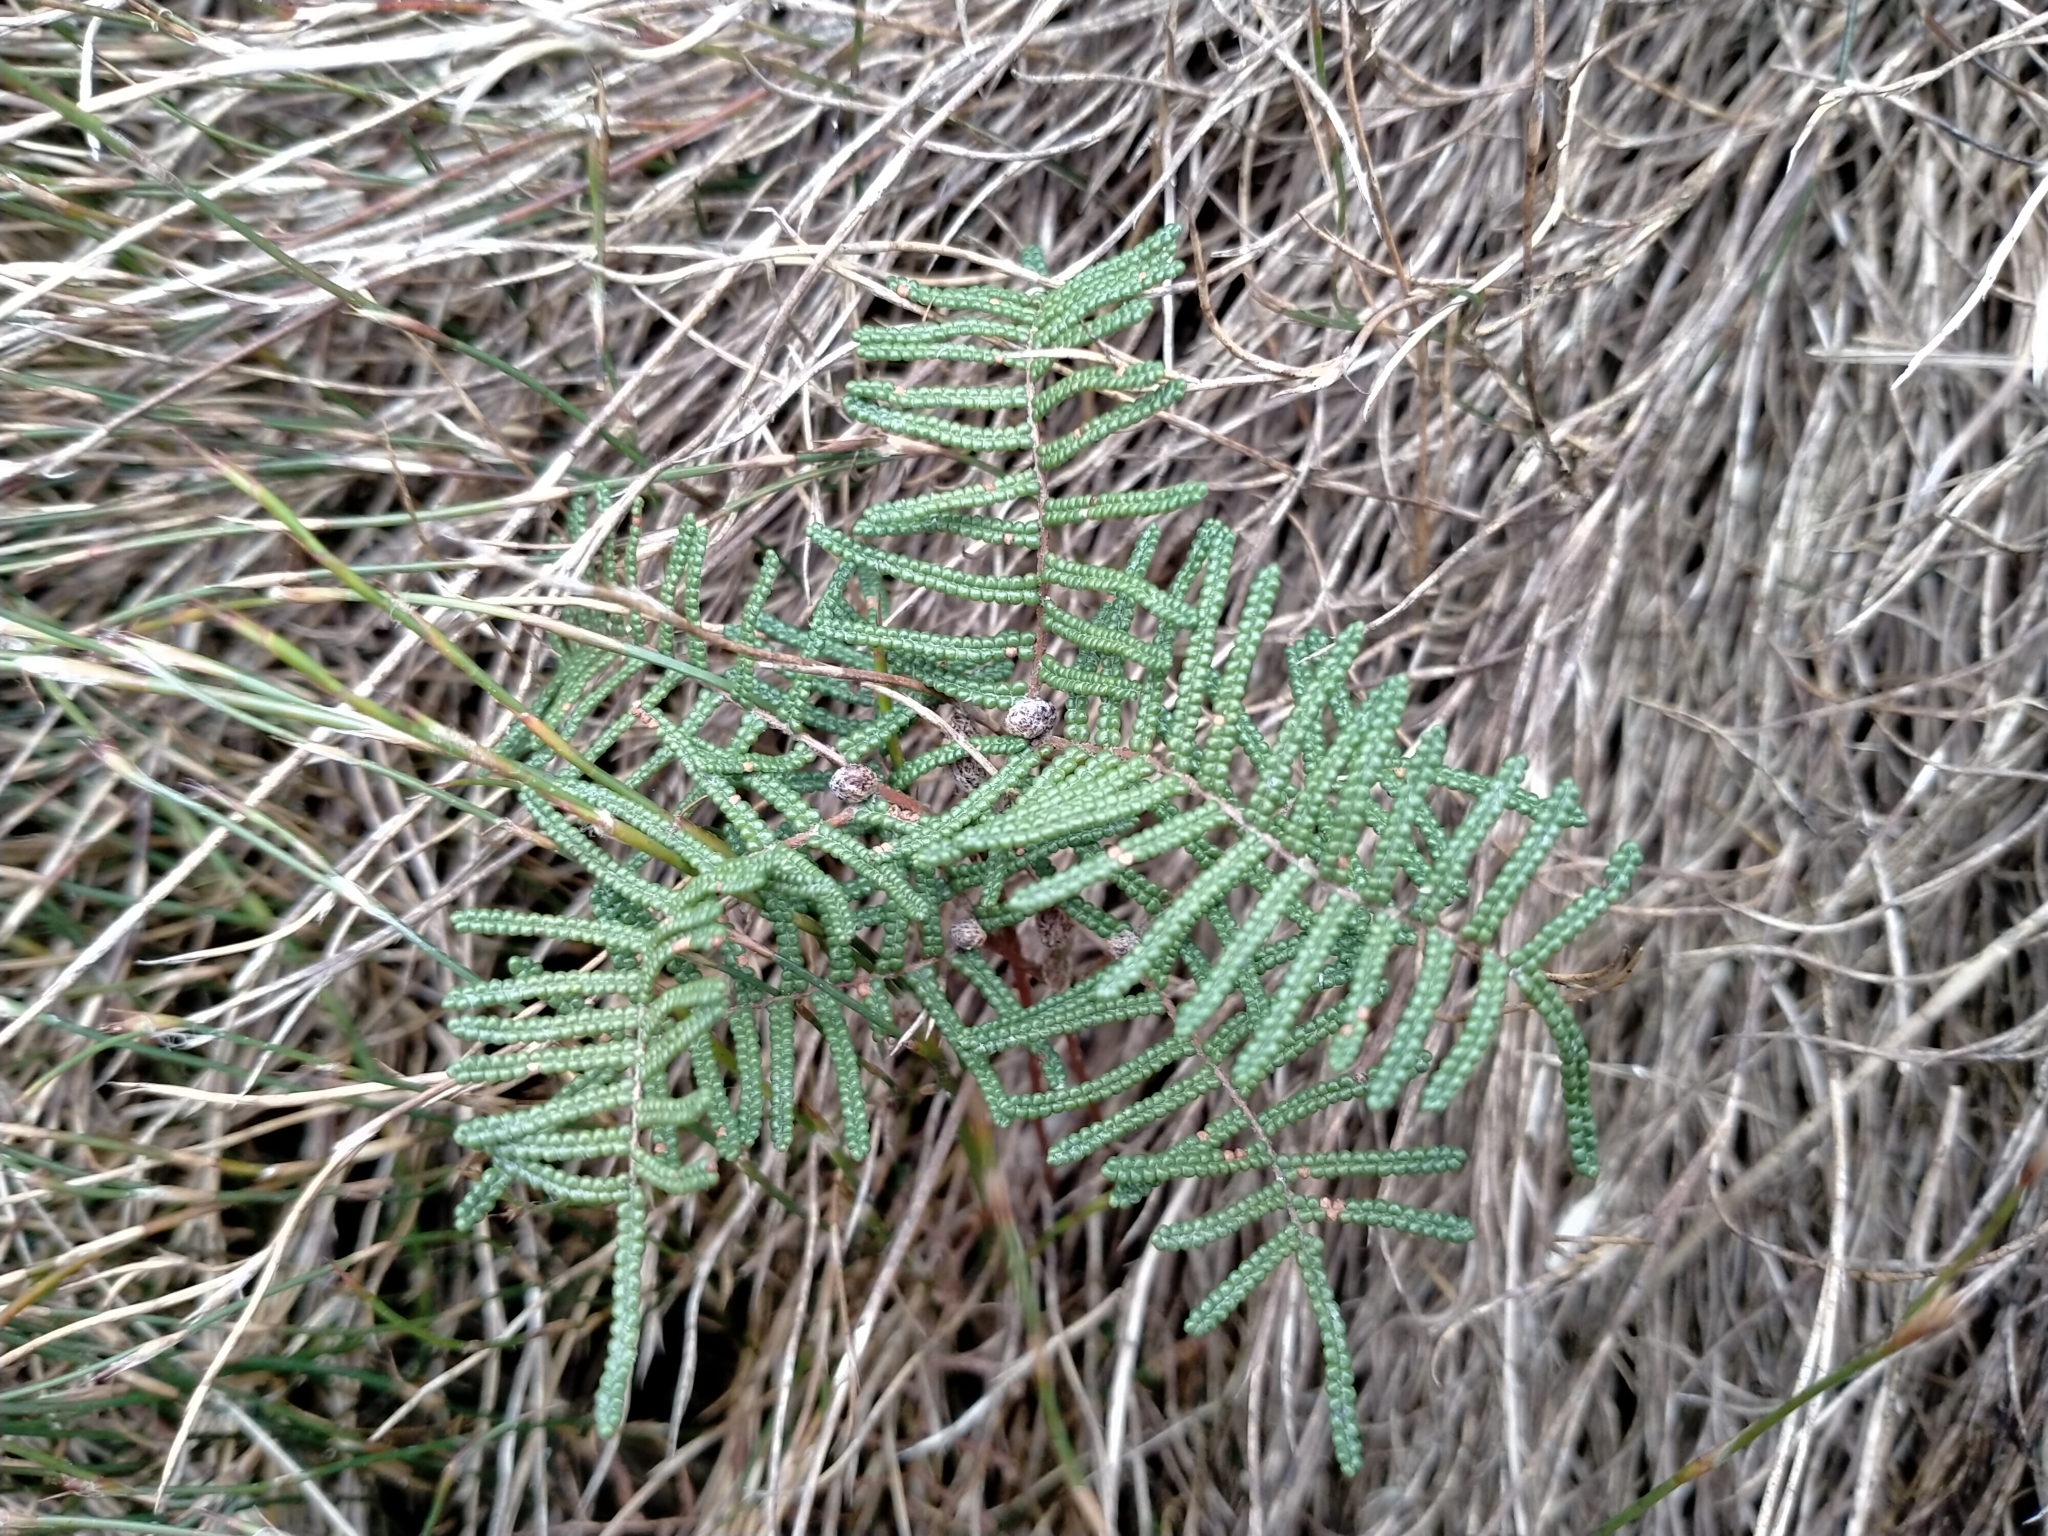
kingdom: Plantae
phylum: Tracheophyta
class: Polypodiopsida
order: Gleicheniales
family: Gleicheniaceae
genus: Gleichenia
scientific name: Gleichenia alpina
